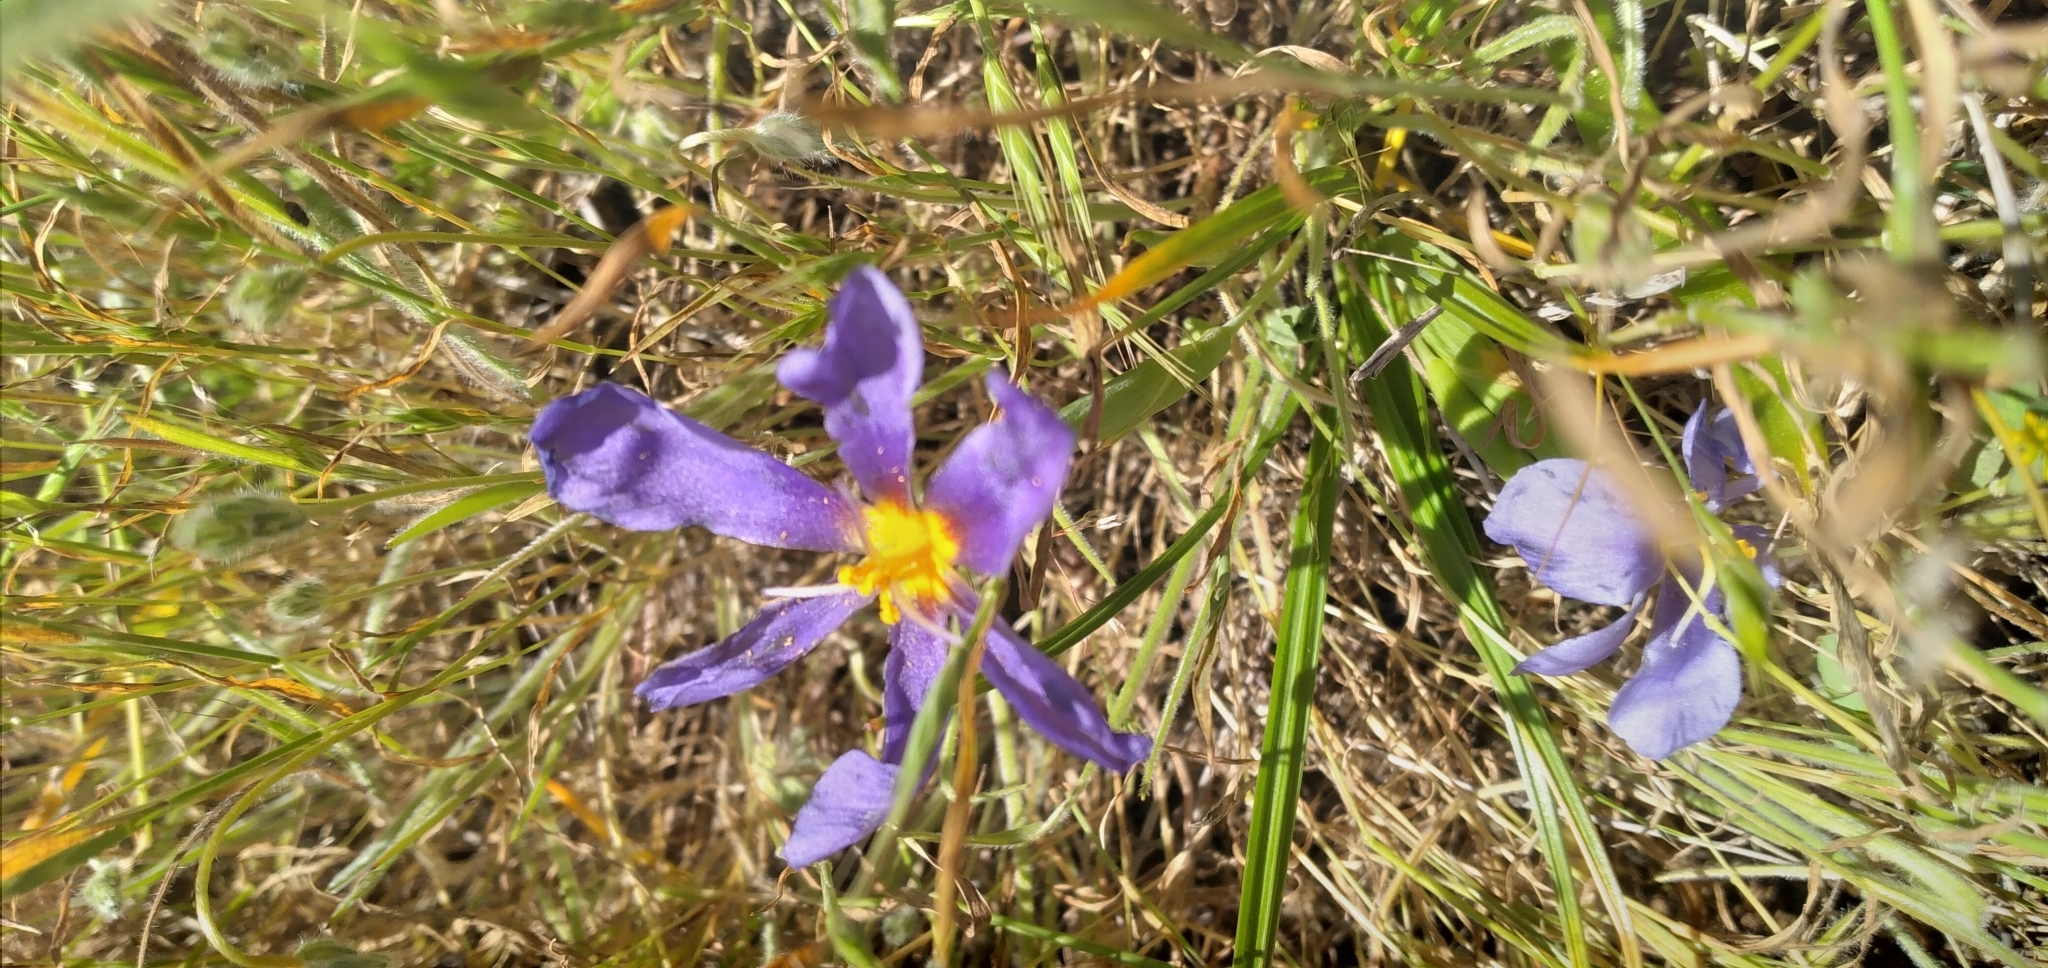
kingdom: Plantae
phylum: Tracheophyta
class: Liliopsida
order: Asparagales
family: Iridaceae
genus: Calydorea
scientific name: Calydorea xiphioides
